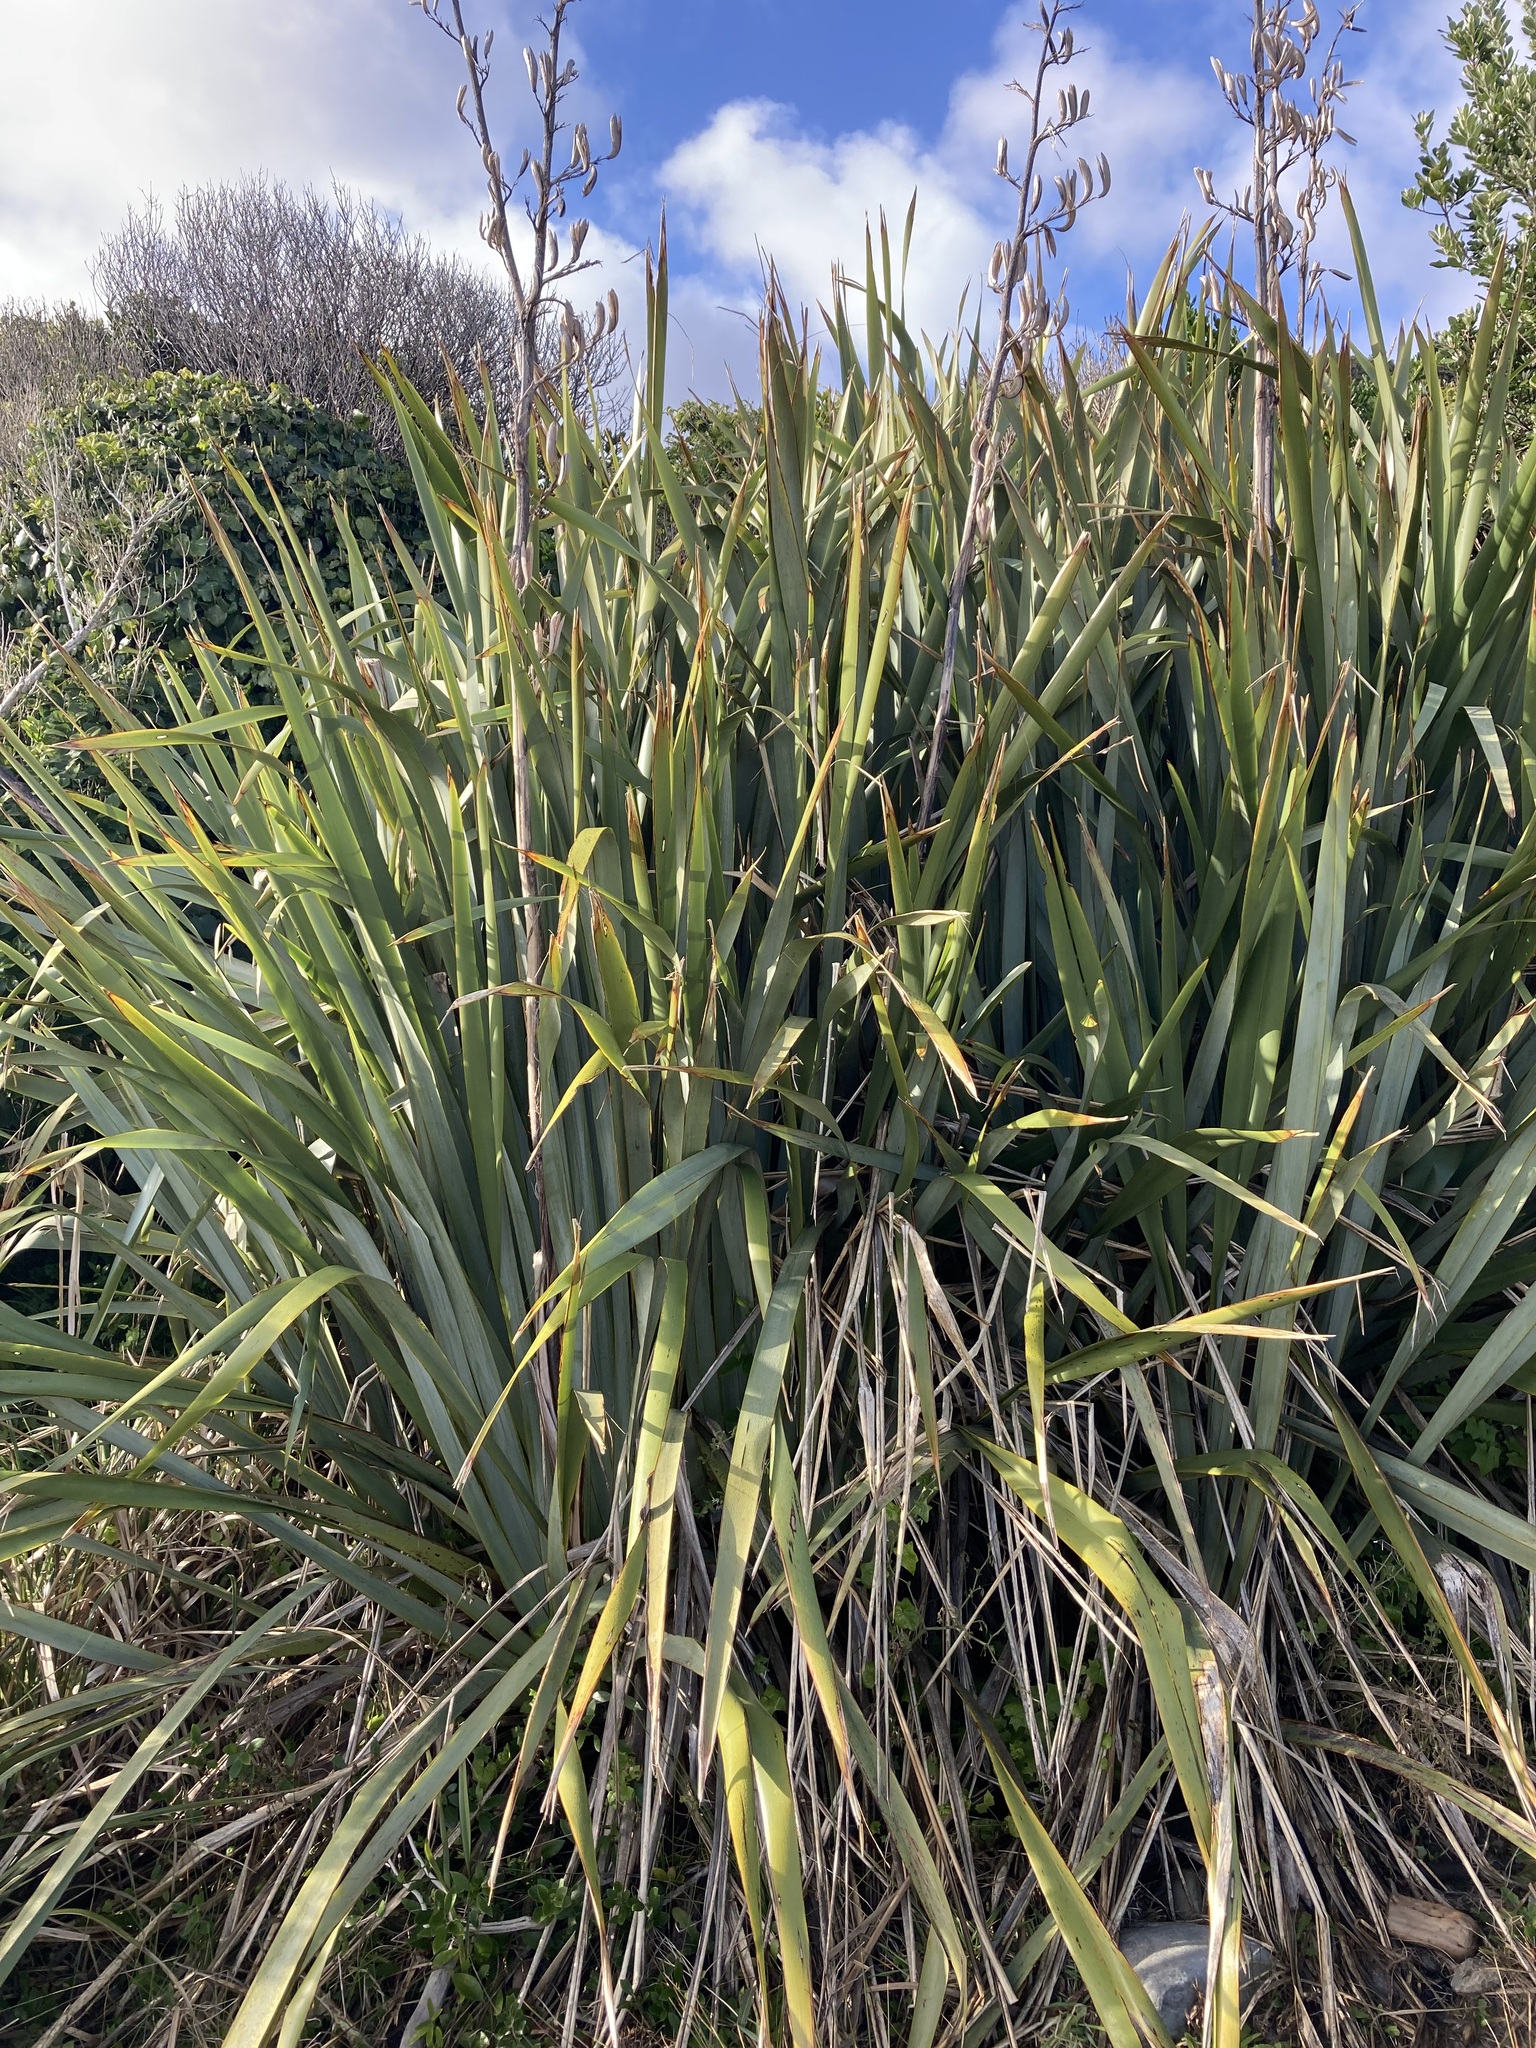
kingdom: Plantae
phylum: Tracheophyta
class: Liliopsida
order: Asparagales
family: Asphodelaceae
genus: Phormium
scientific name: Phormium tenax
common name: New zealand flax
